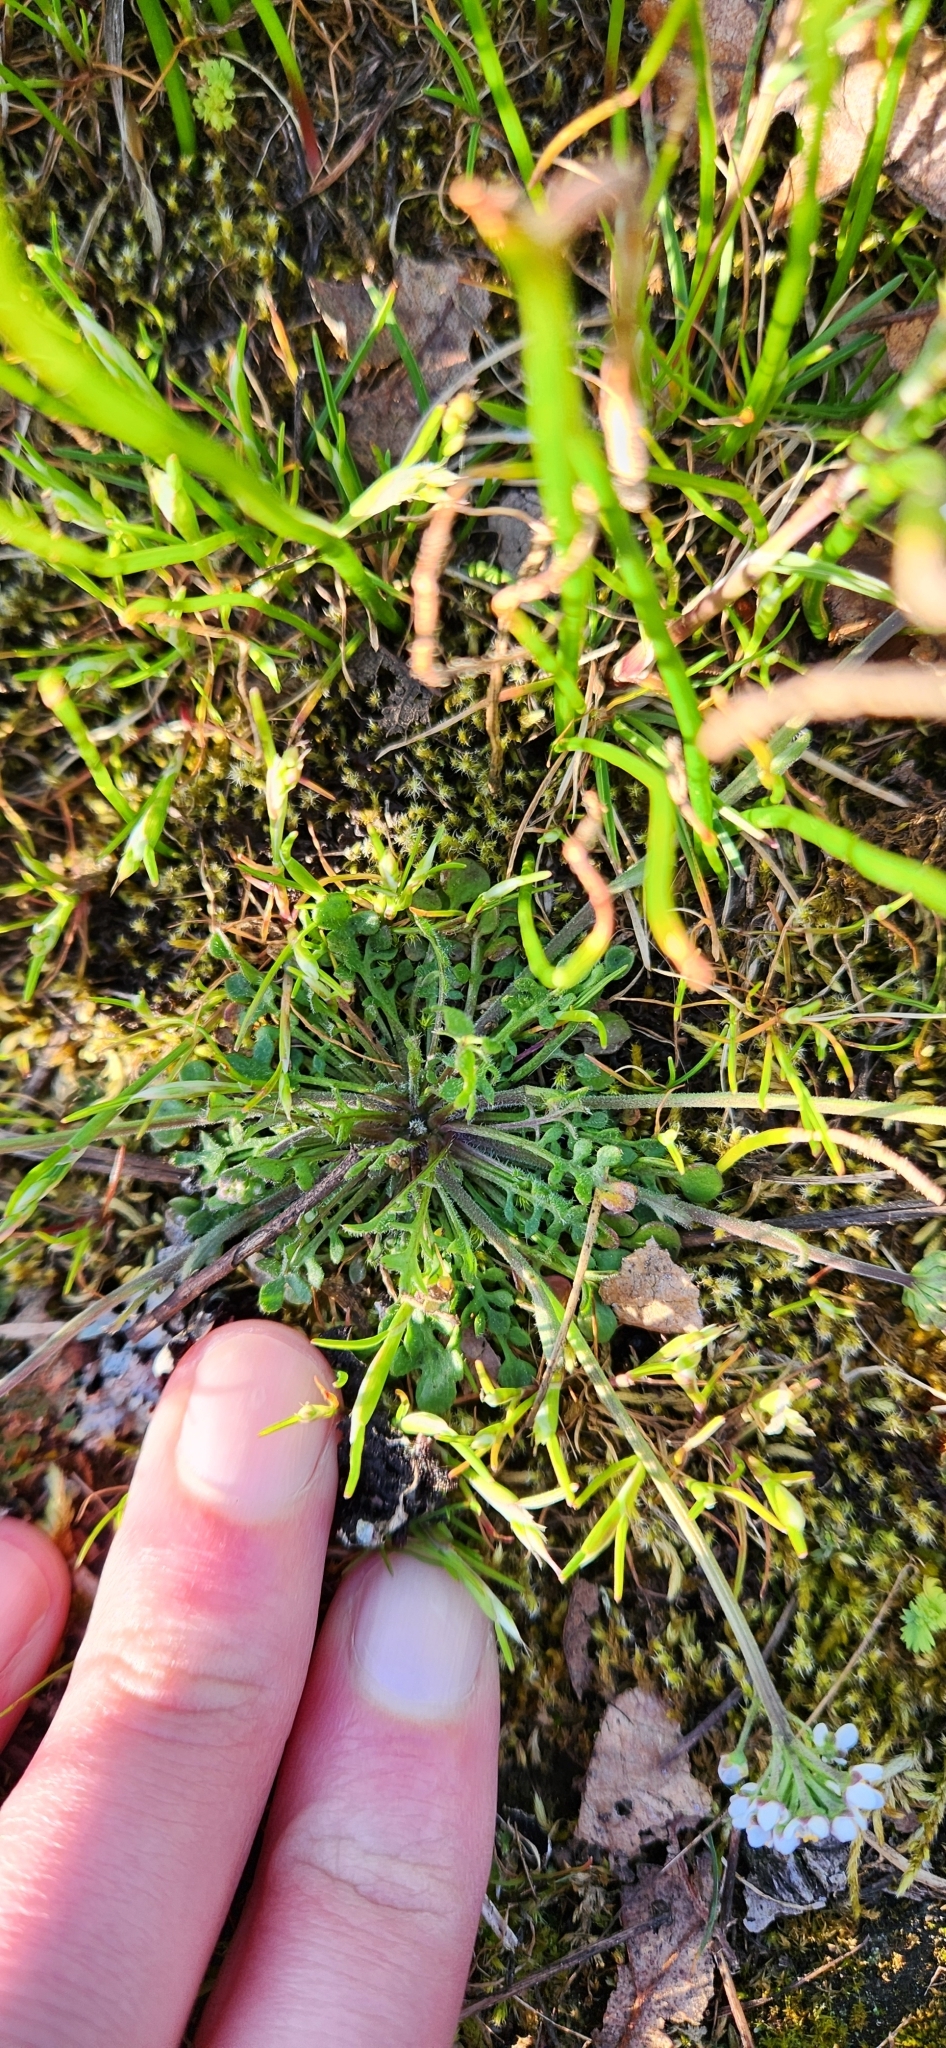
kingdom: Plantae
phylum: Tracheophyta
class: Magnoliopsida
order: Brassicales
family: Brassicaceae
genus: Teesdalia
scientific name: Teesdalia nudicaulis
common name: Shepherd's cress
